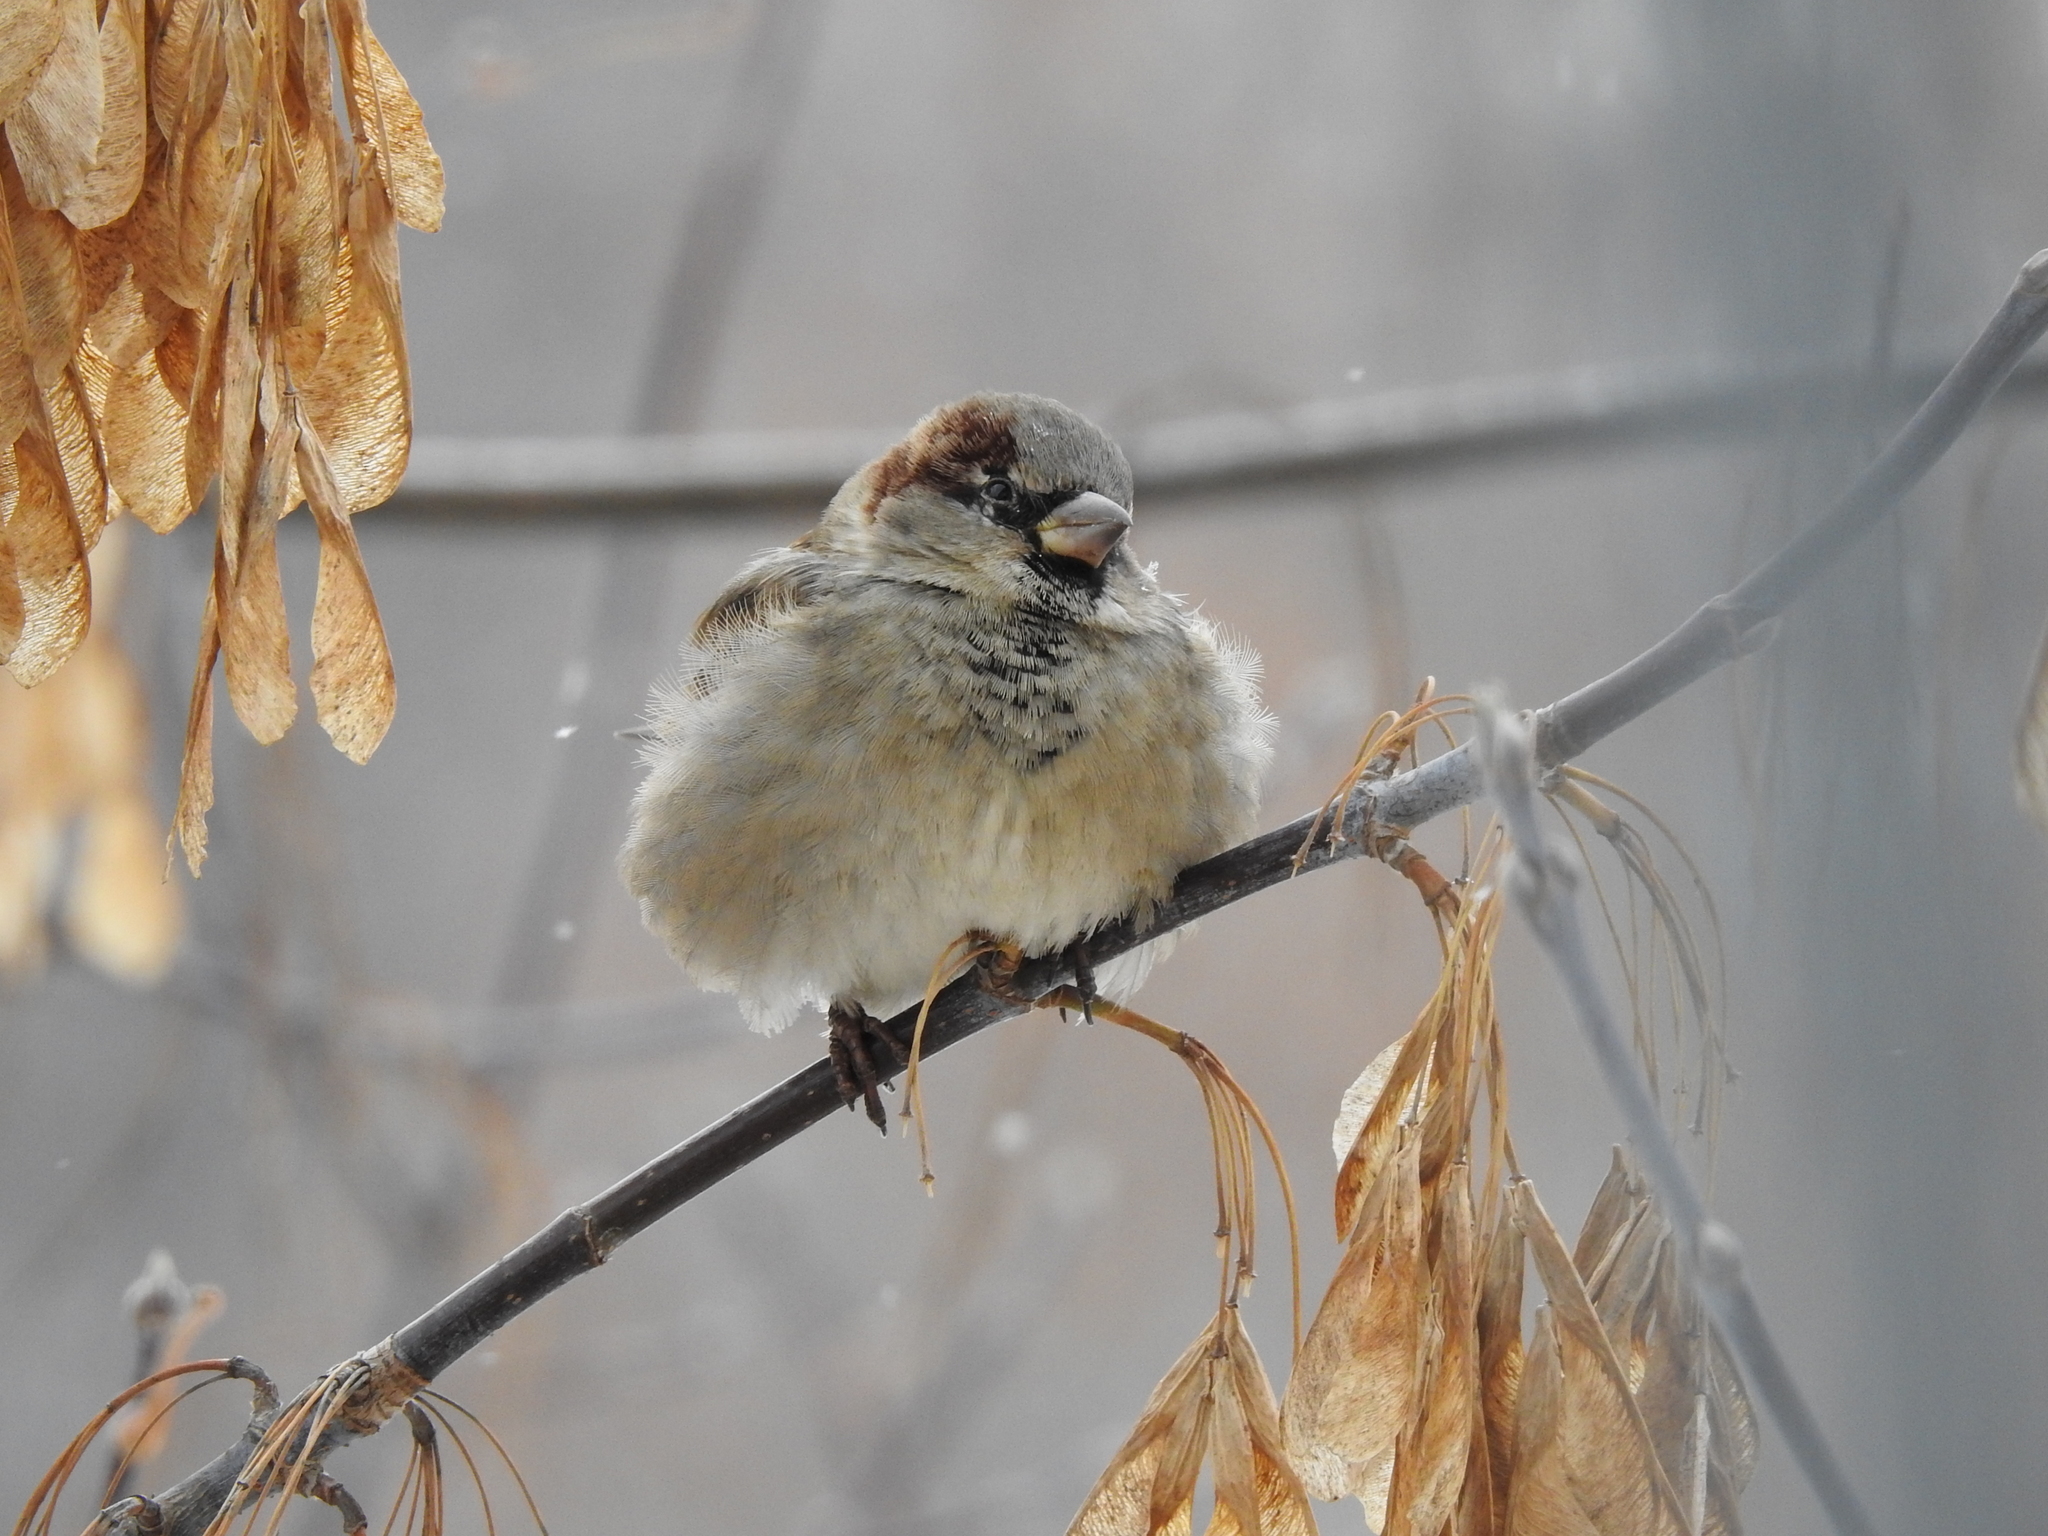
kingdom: Animalia
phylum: Chordata
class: Aves
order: Passeriformes
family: Passeridae
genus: Passer
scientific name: Passer domesticus
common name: House sparrow
